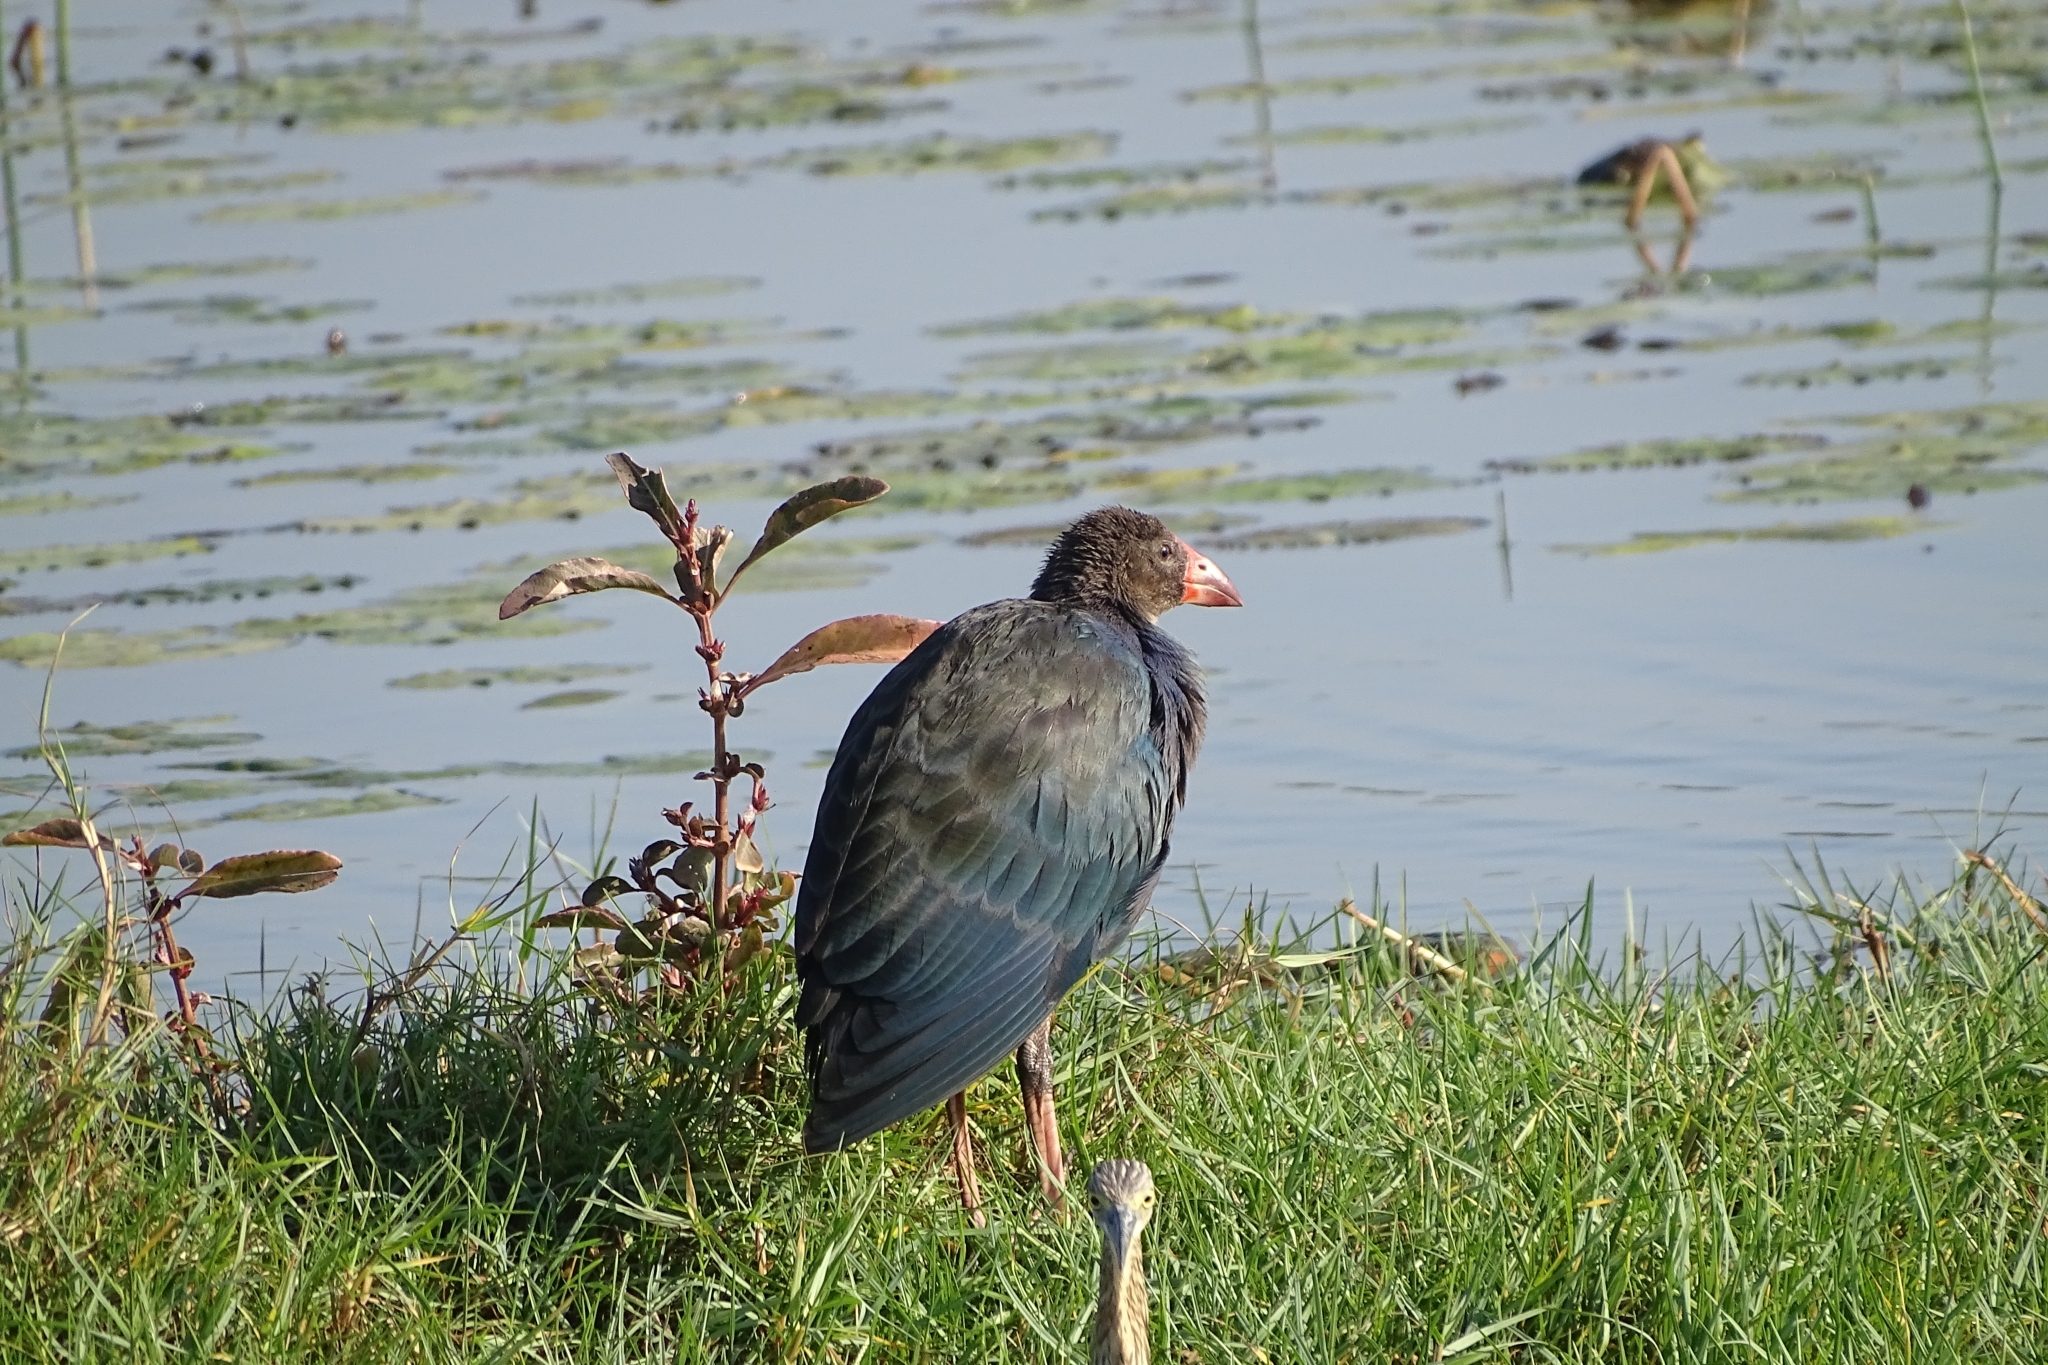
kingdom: Animalia
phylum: Chordata
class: Aves
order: Gruiformes
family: Rallidae
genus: Porphyrio
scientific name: Porphyrio porphyrio
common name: Purple swamphen
